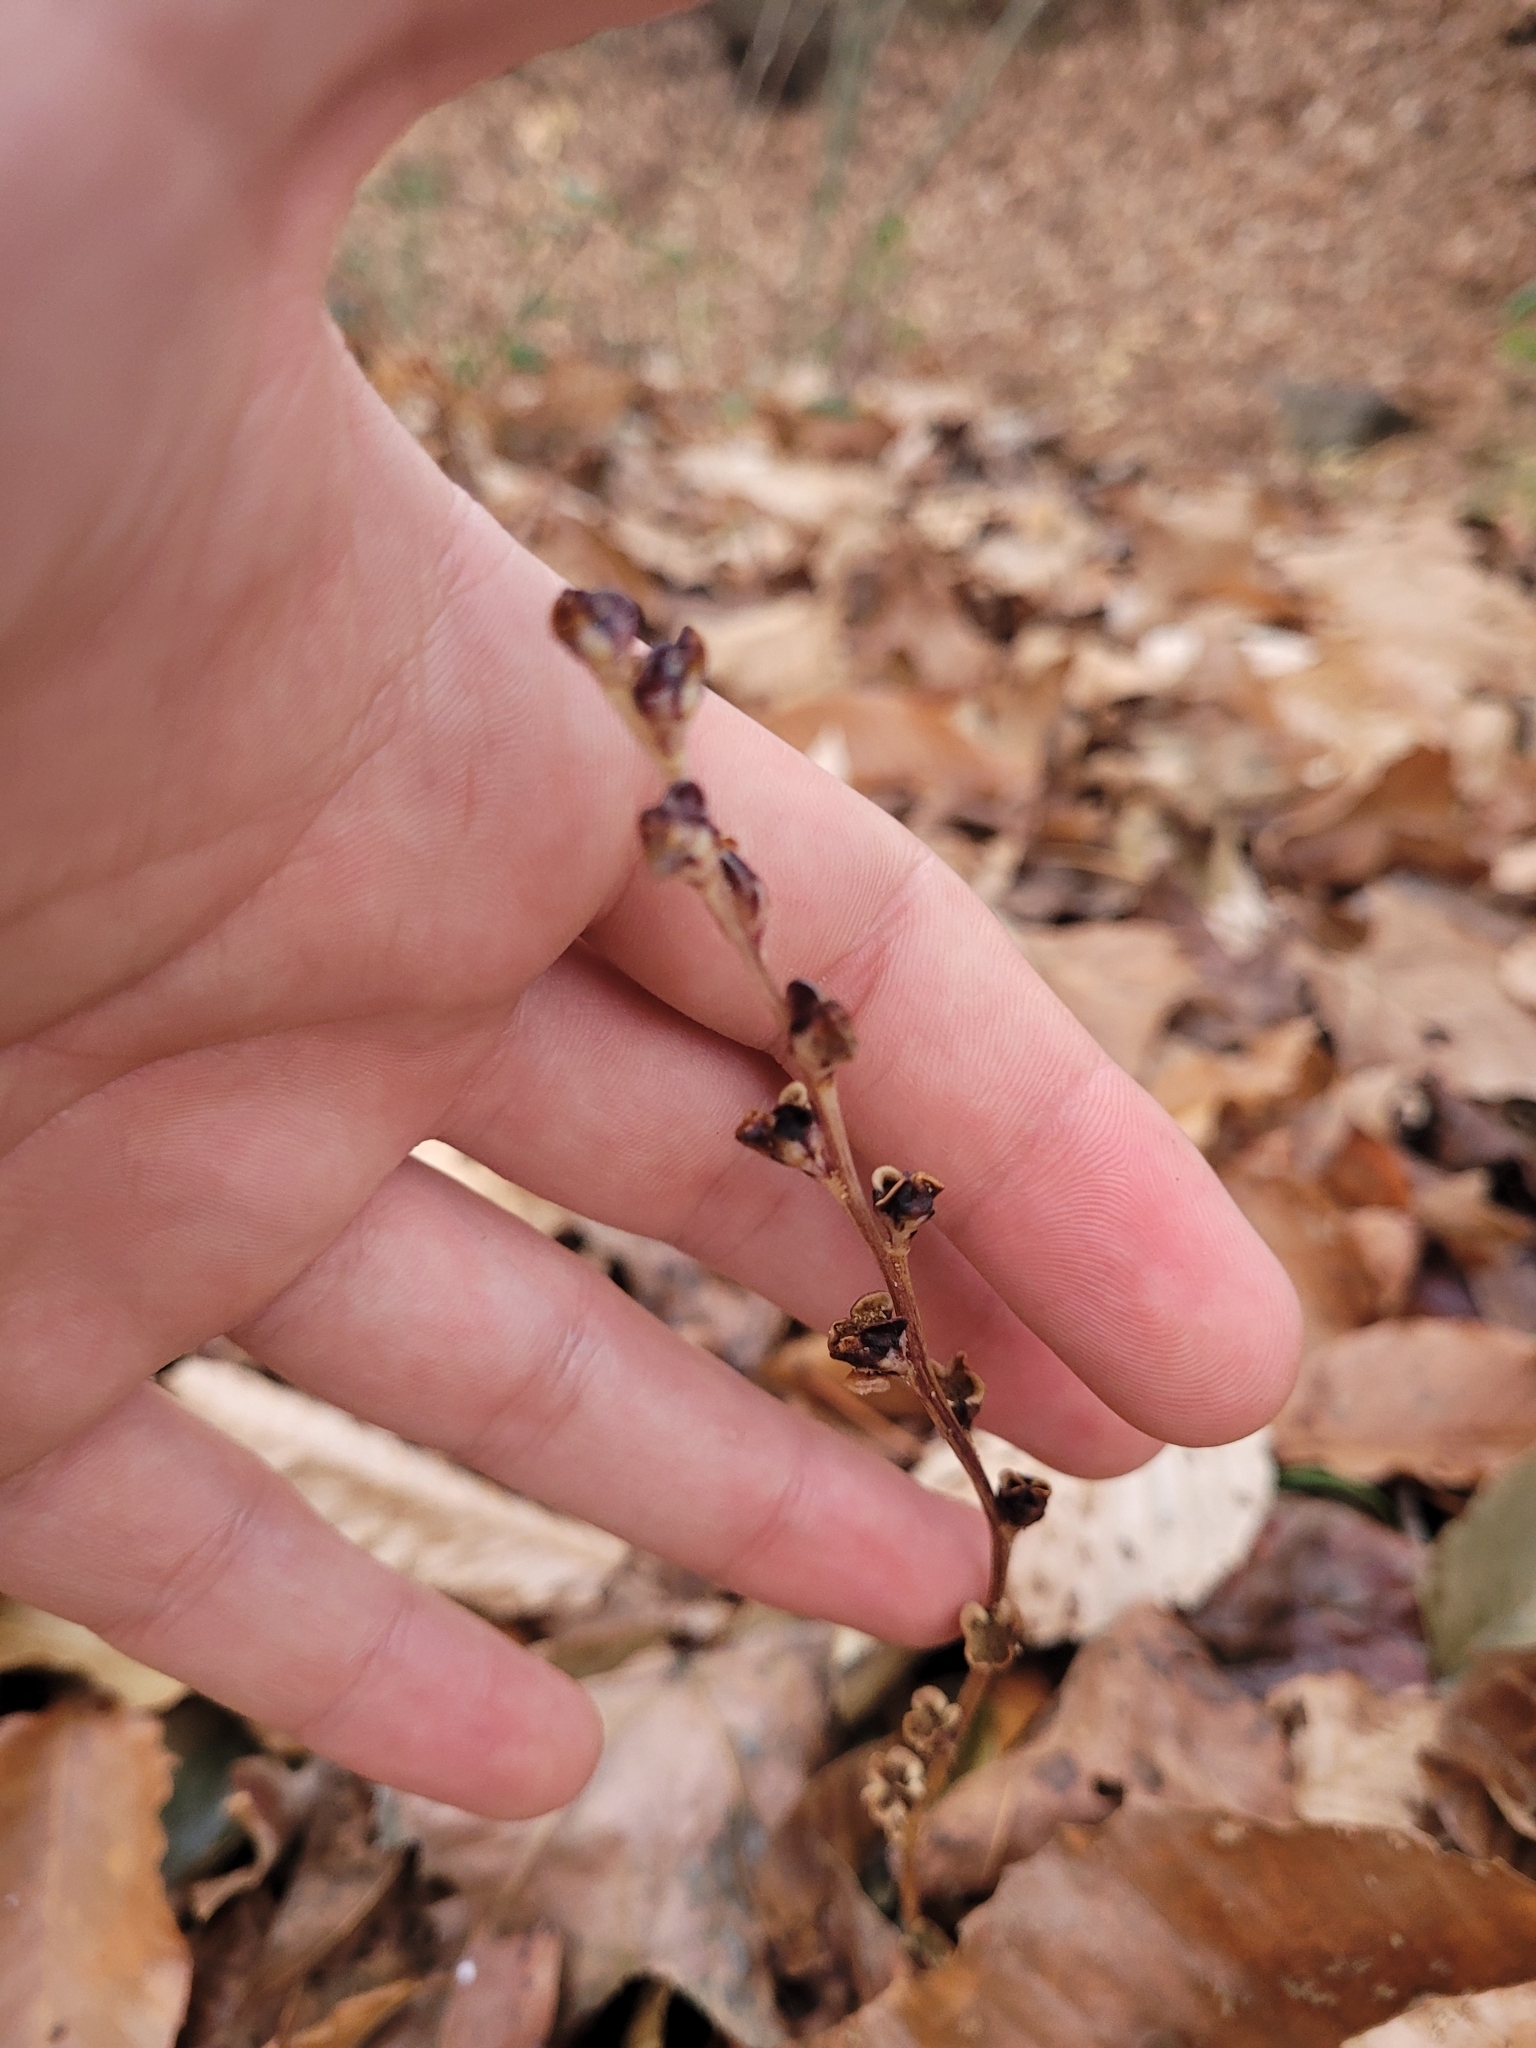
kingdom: Plantae
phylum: Tracheophyta
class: Magnoliopsida
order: Lamiales
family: Orobanchaceae
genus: Epifagus
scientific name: Epifagus virginiana
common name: Beechdrops
